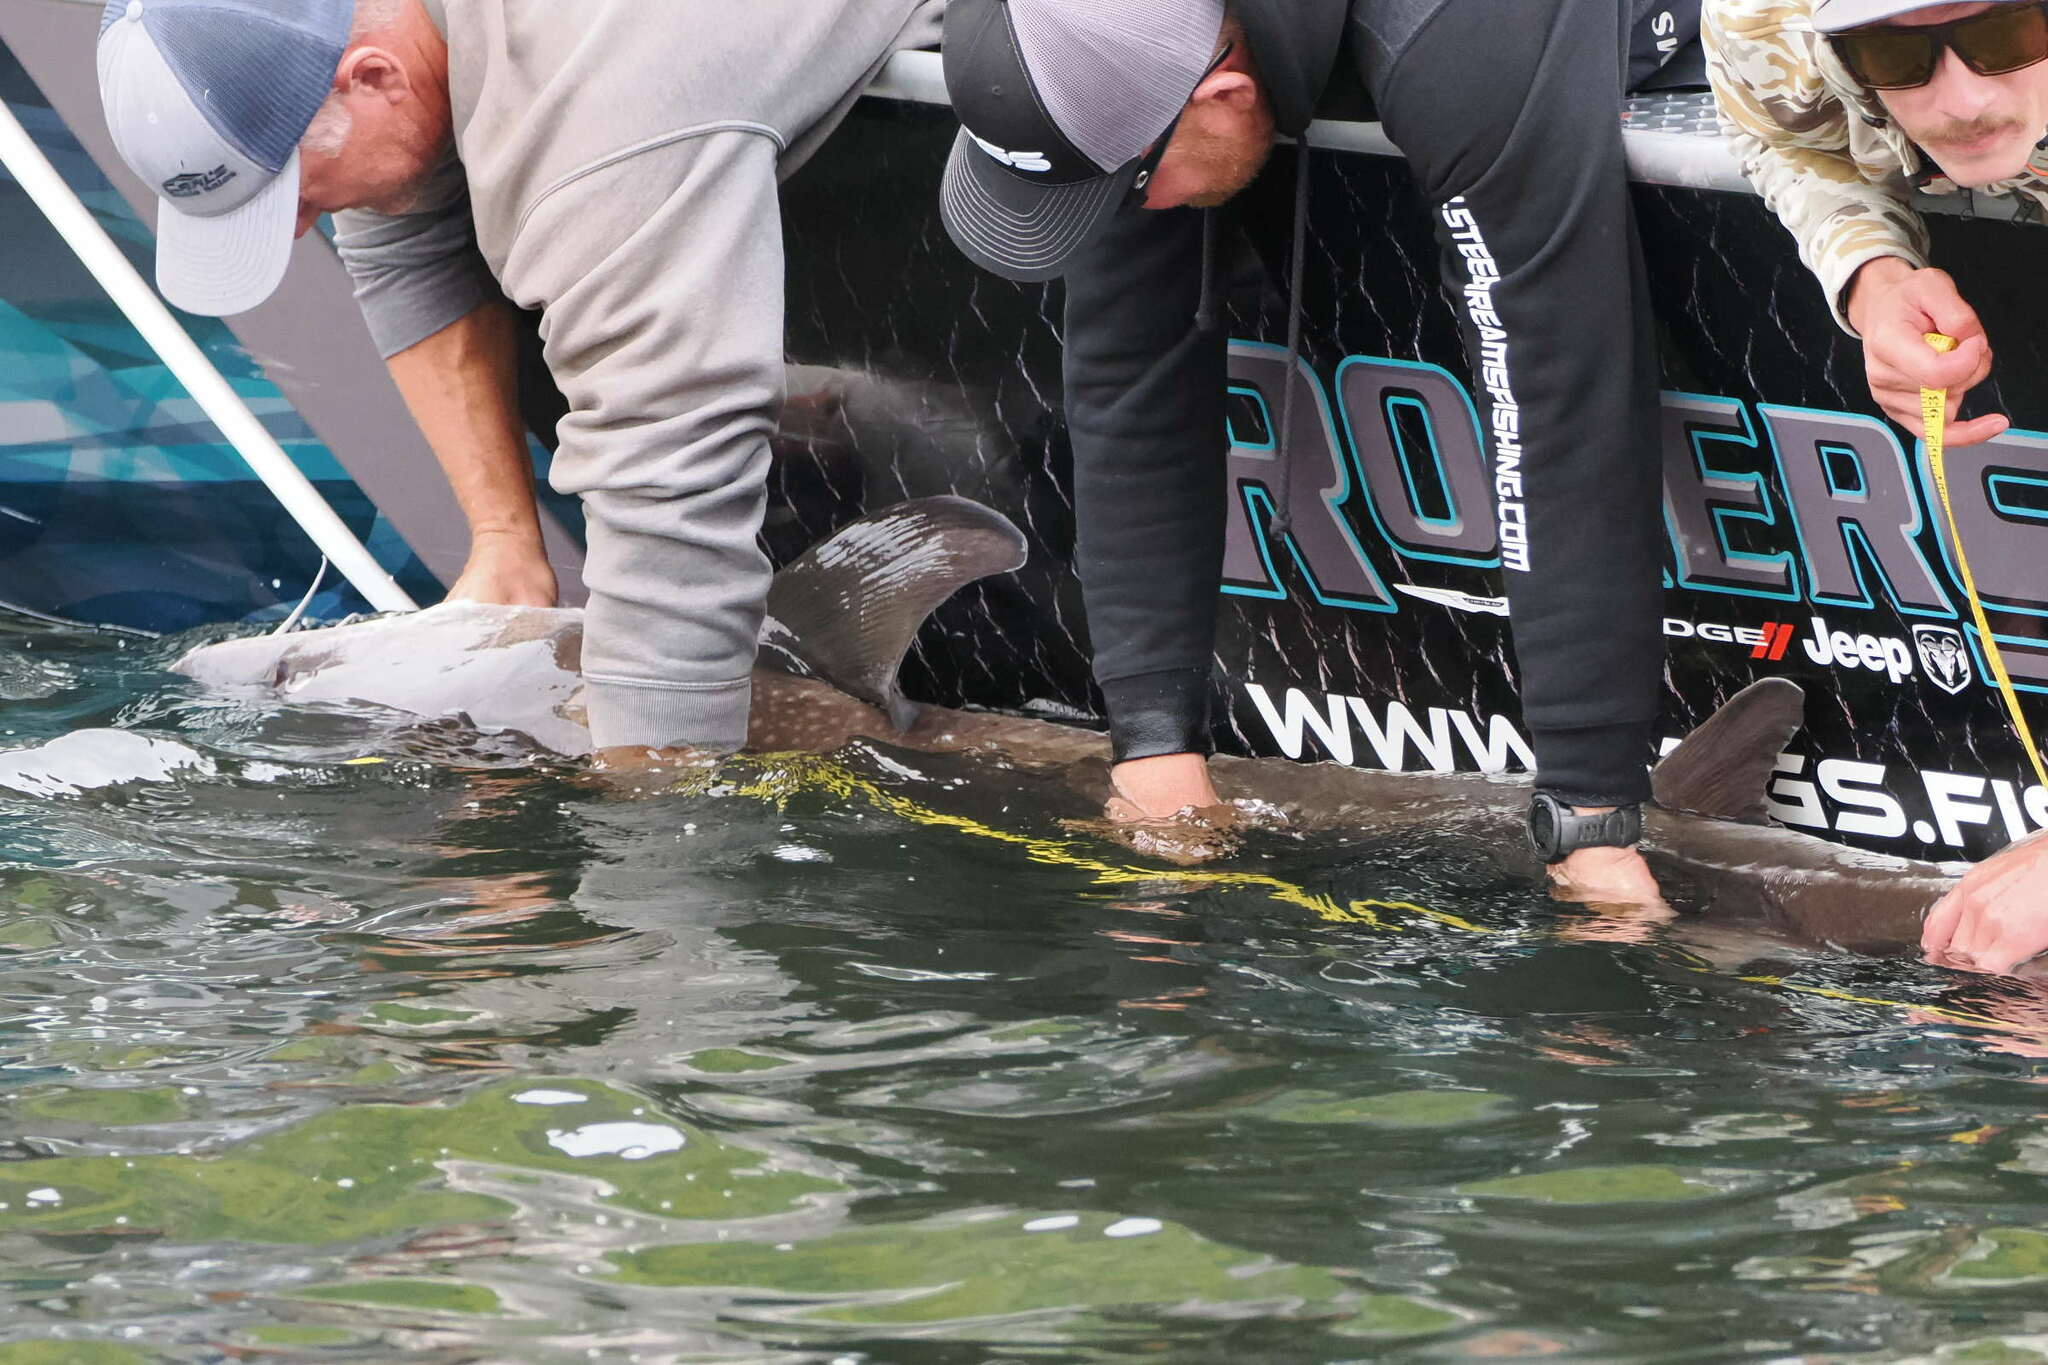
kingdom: Animalia
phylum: Chordata
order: Acipenseriformes
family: Acipenseridae
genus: Acipenser
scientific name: Acipenser transmontanus
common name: White sturgeon
